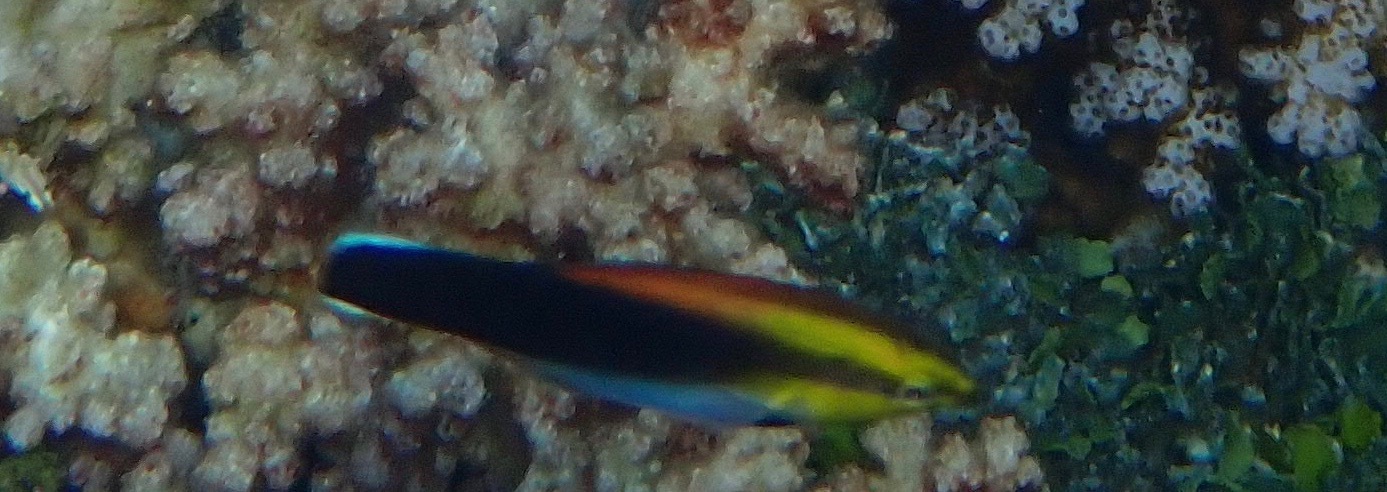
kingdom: Animalia
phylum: Chordata
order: Perciformes
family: Labridae
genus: Labroides
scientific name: Labroides pectoralis
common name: Black-spot cleaner wrasse
